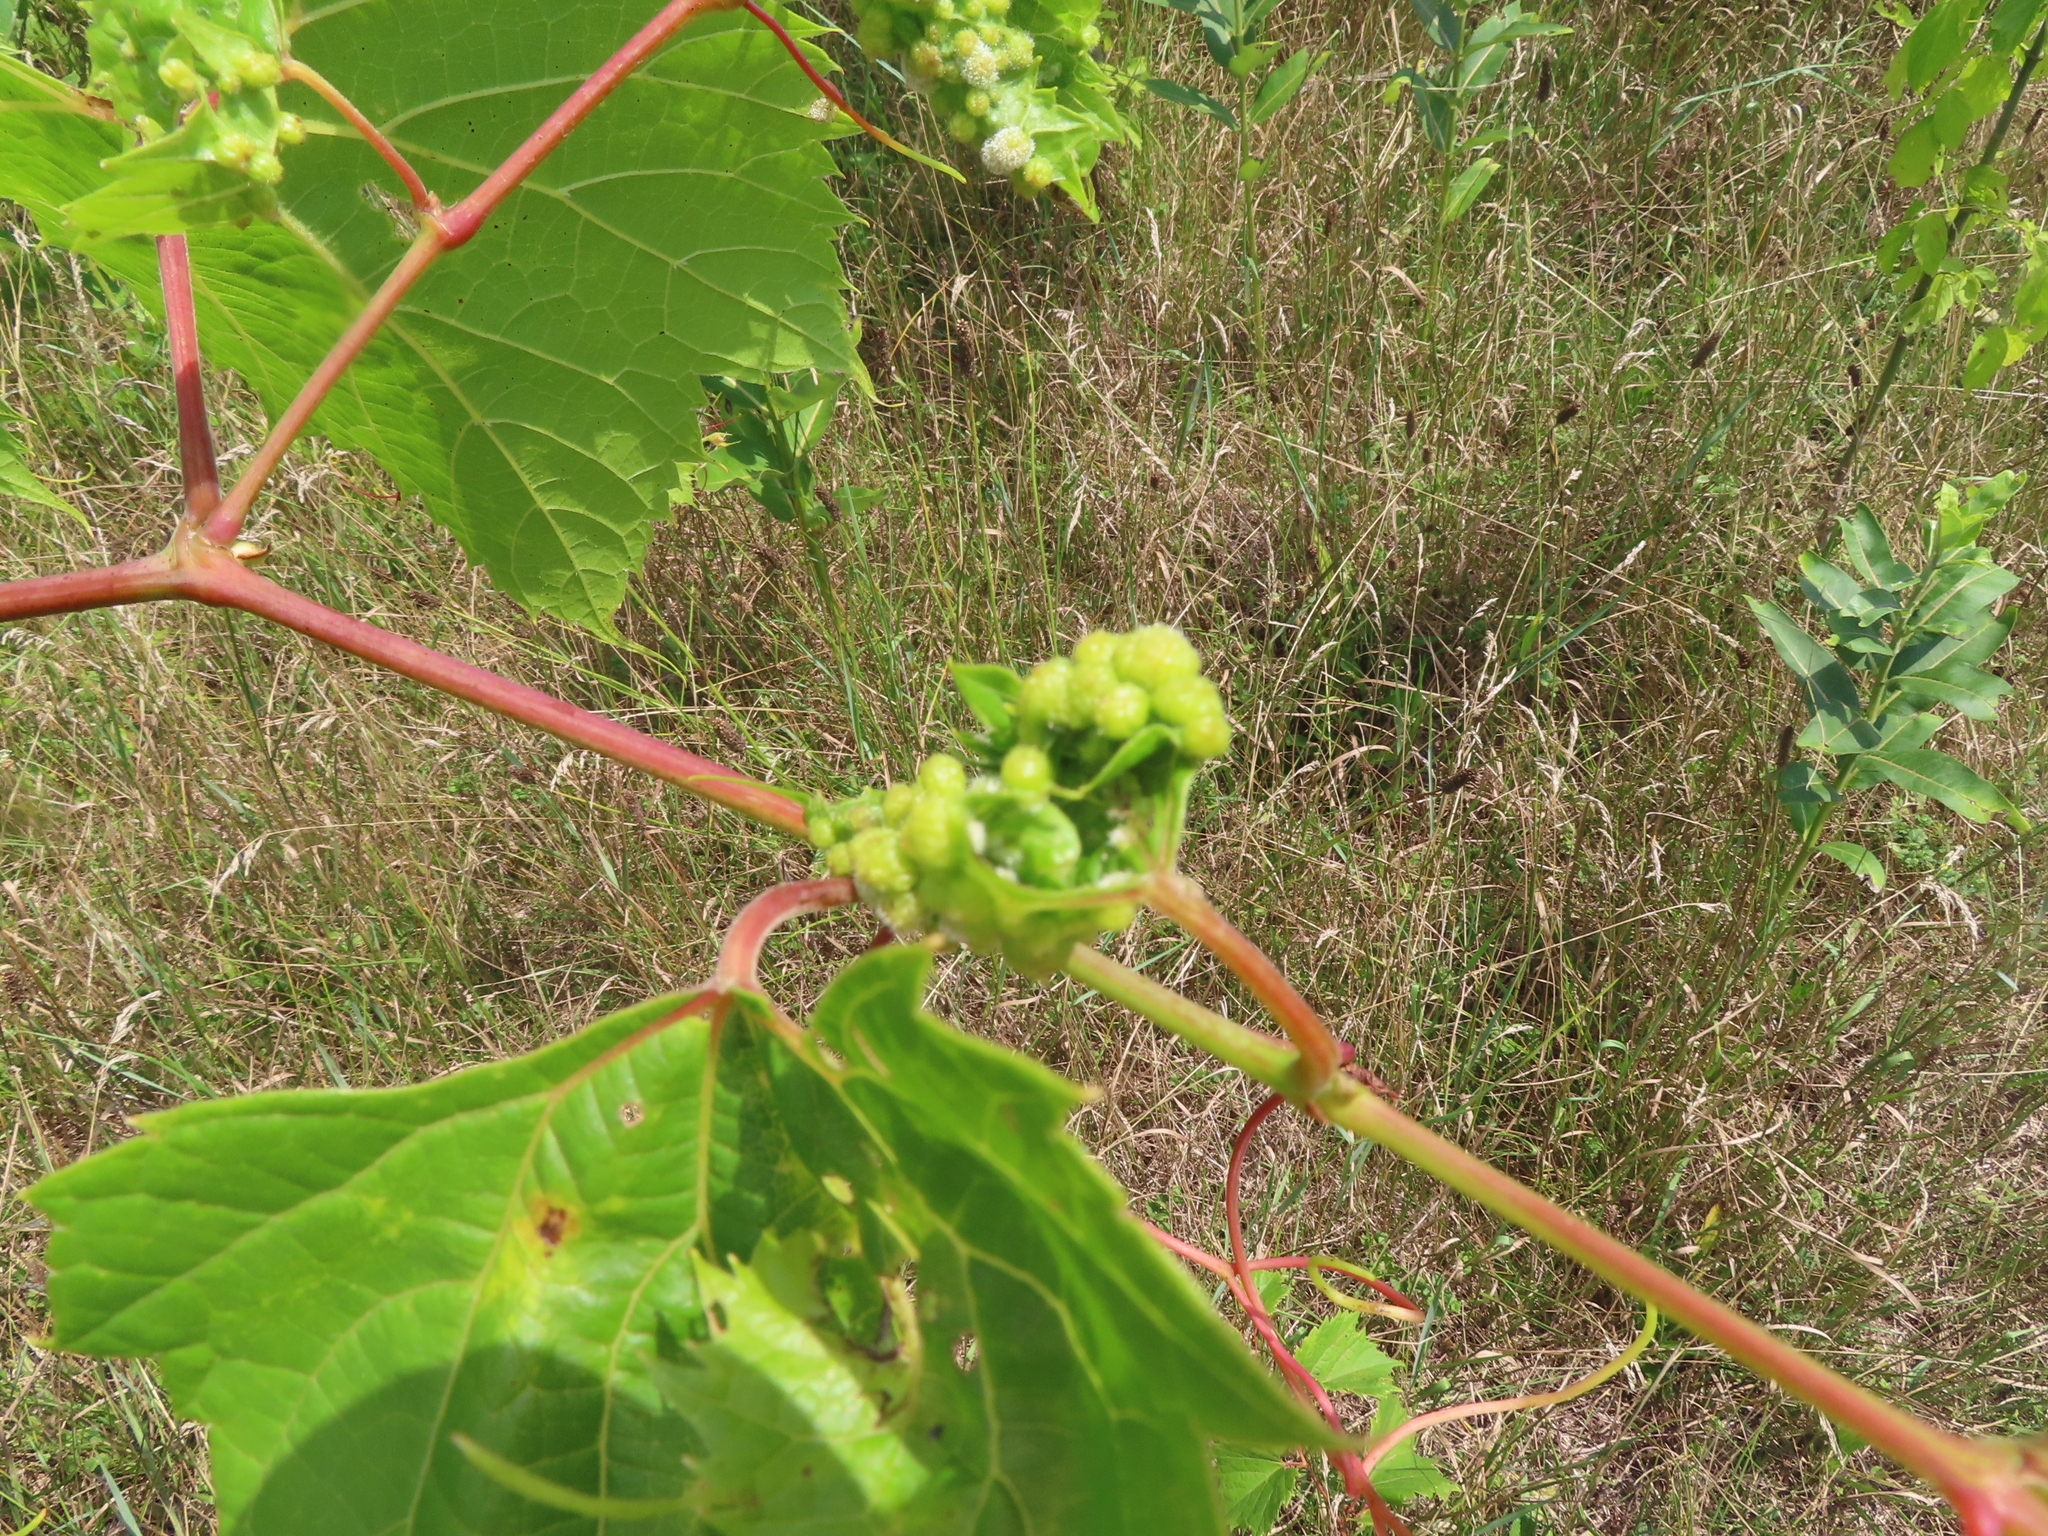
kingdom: Animalia
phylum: Arthropoda
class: Insecta
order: Hemiptera
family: Phylloxeridae
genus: Daktulosphaira
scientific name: Daktulosphaira vitifoliae
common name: Grape phylloxera
